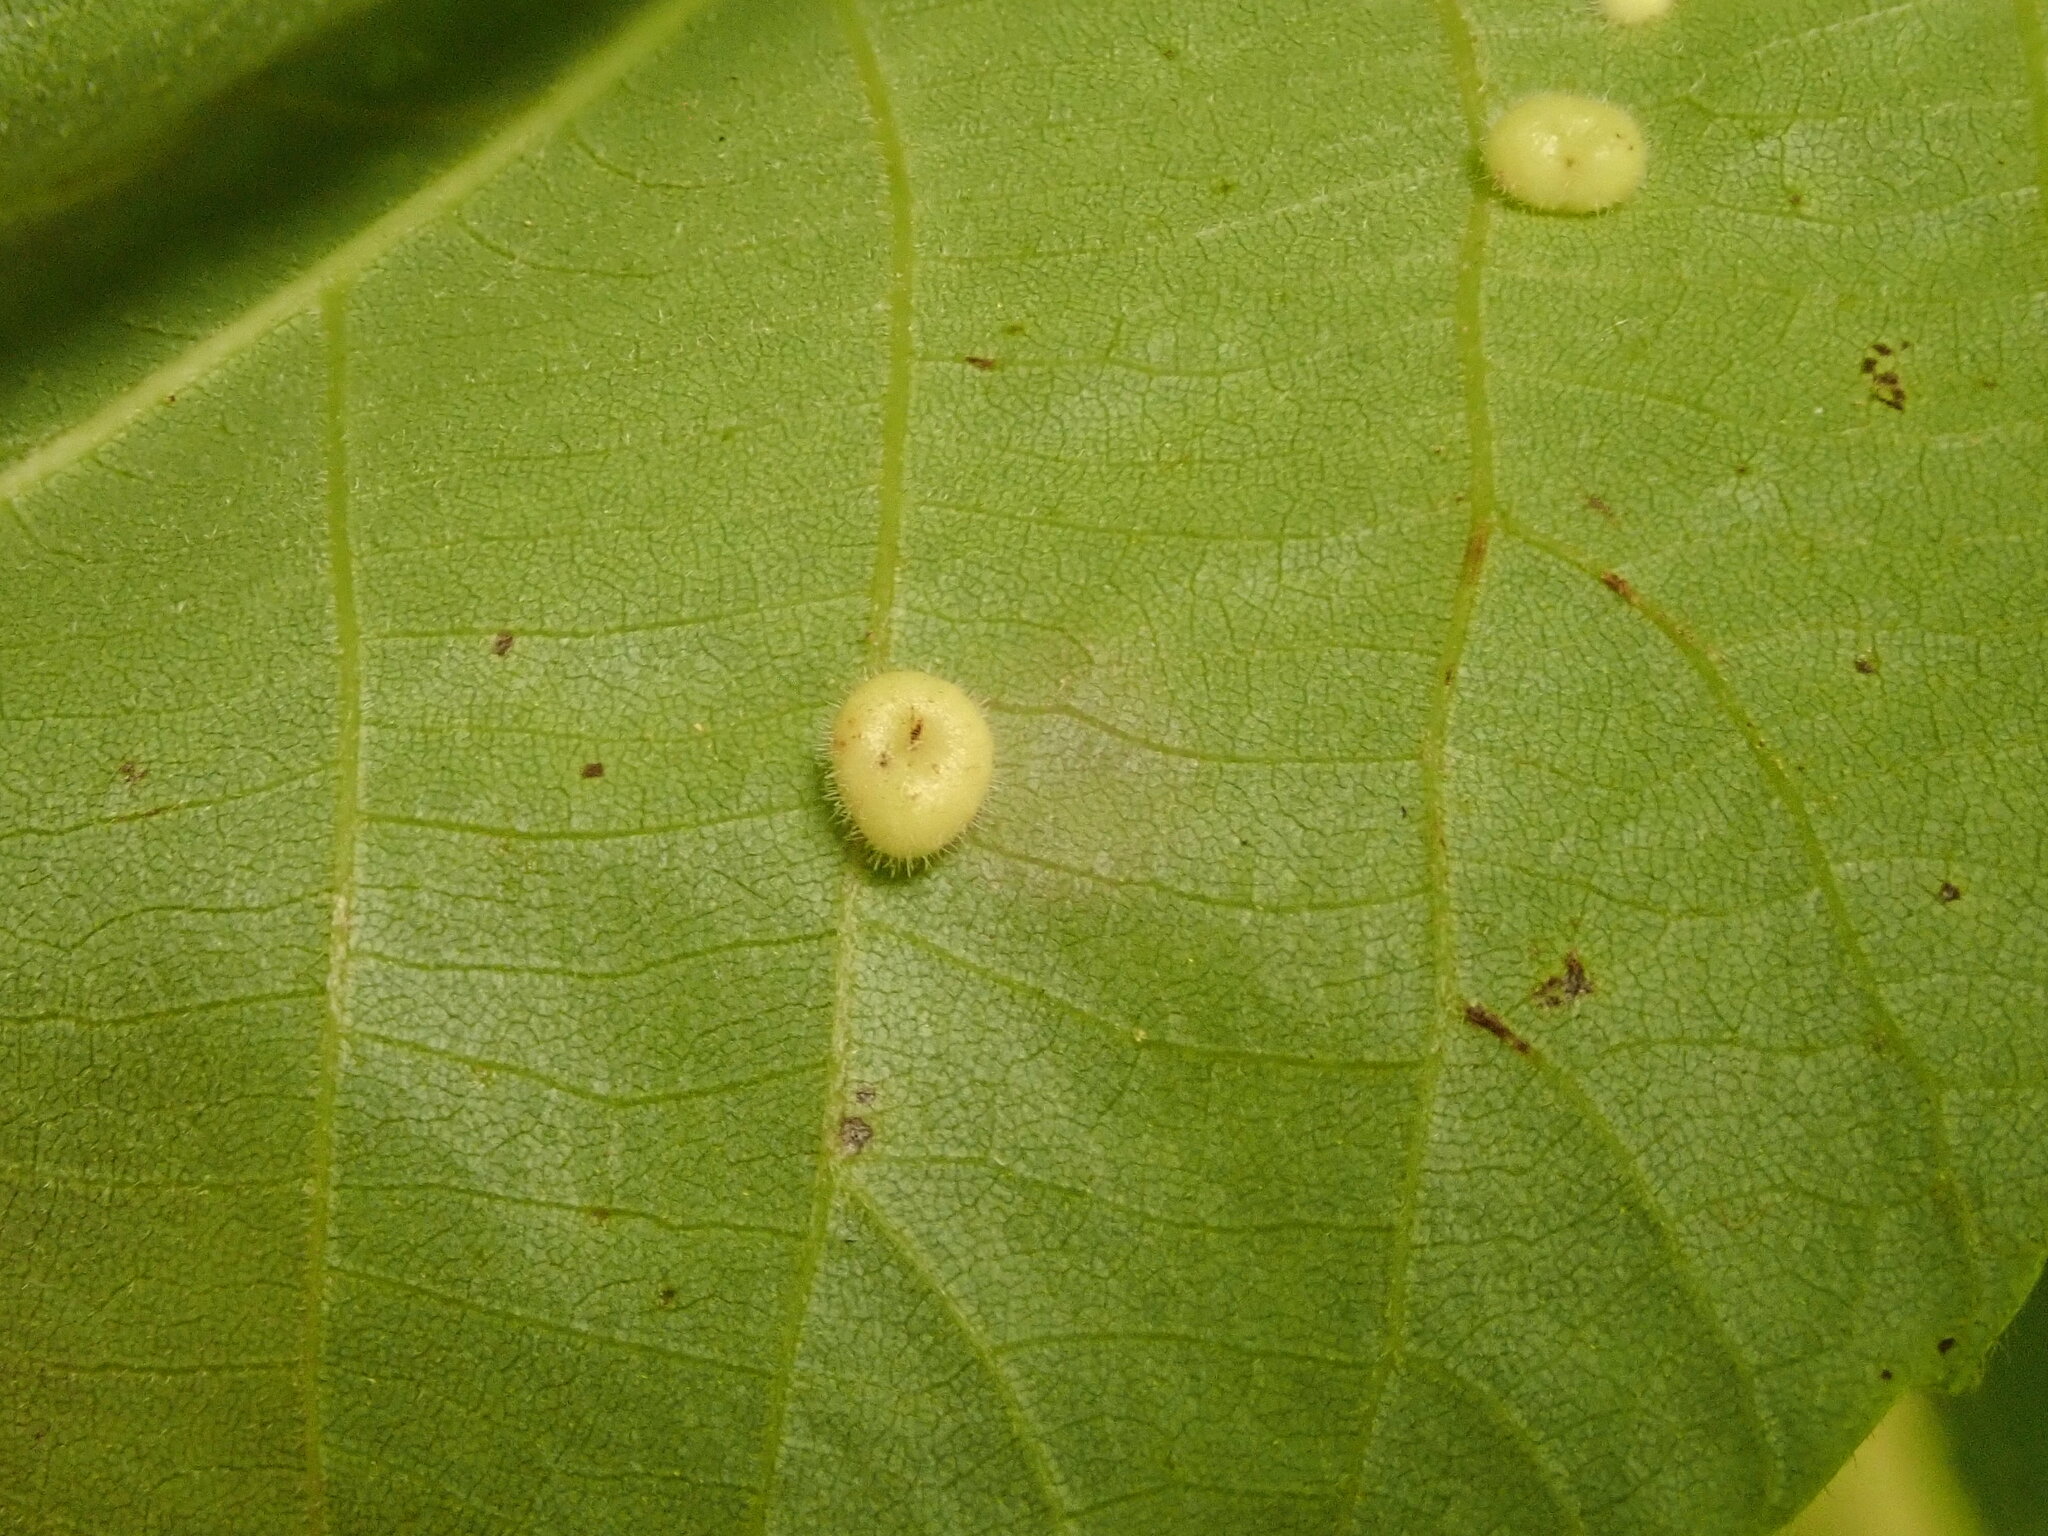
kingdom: Animalia
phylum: Arthropoda
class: Insecta
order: Diptera
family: Cecidomyiidae
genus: Caryomyia
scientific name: Caryomyia thompsoni
